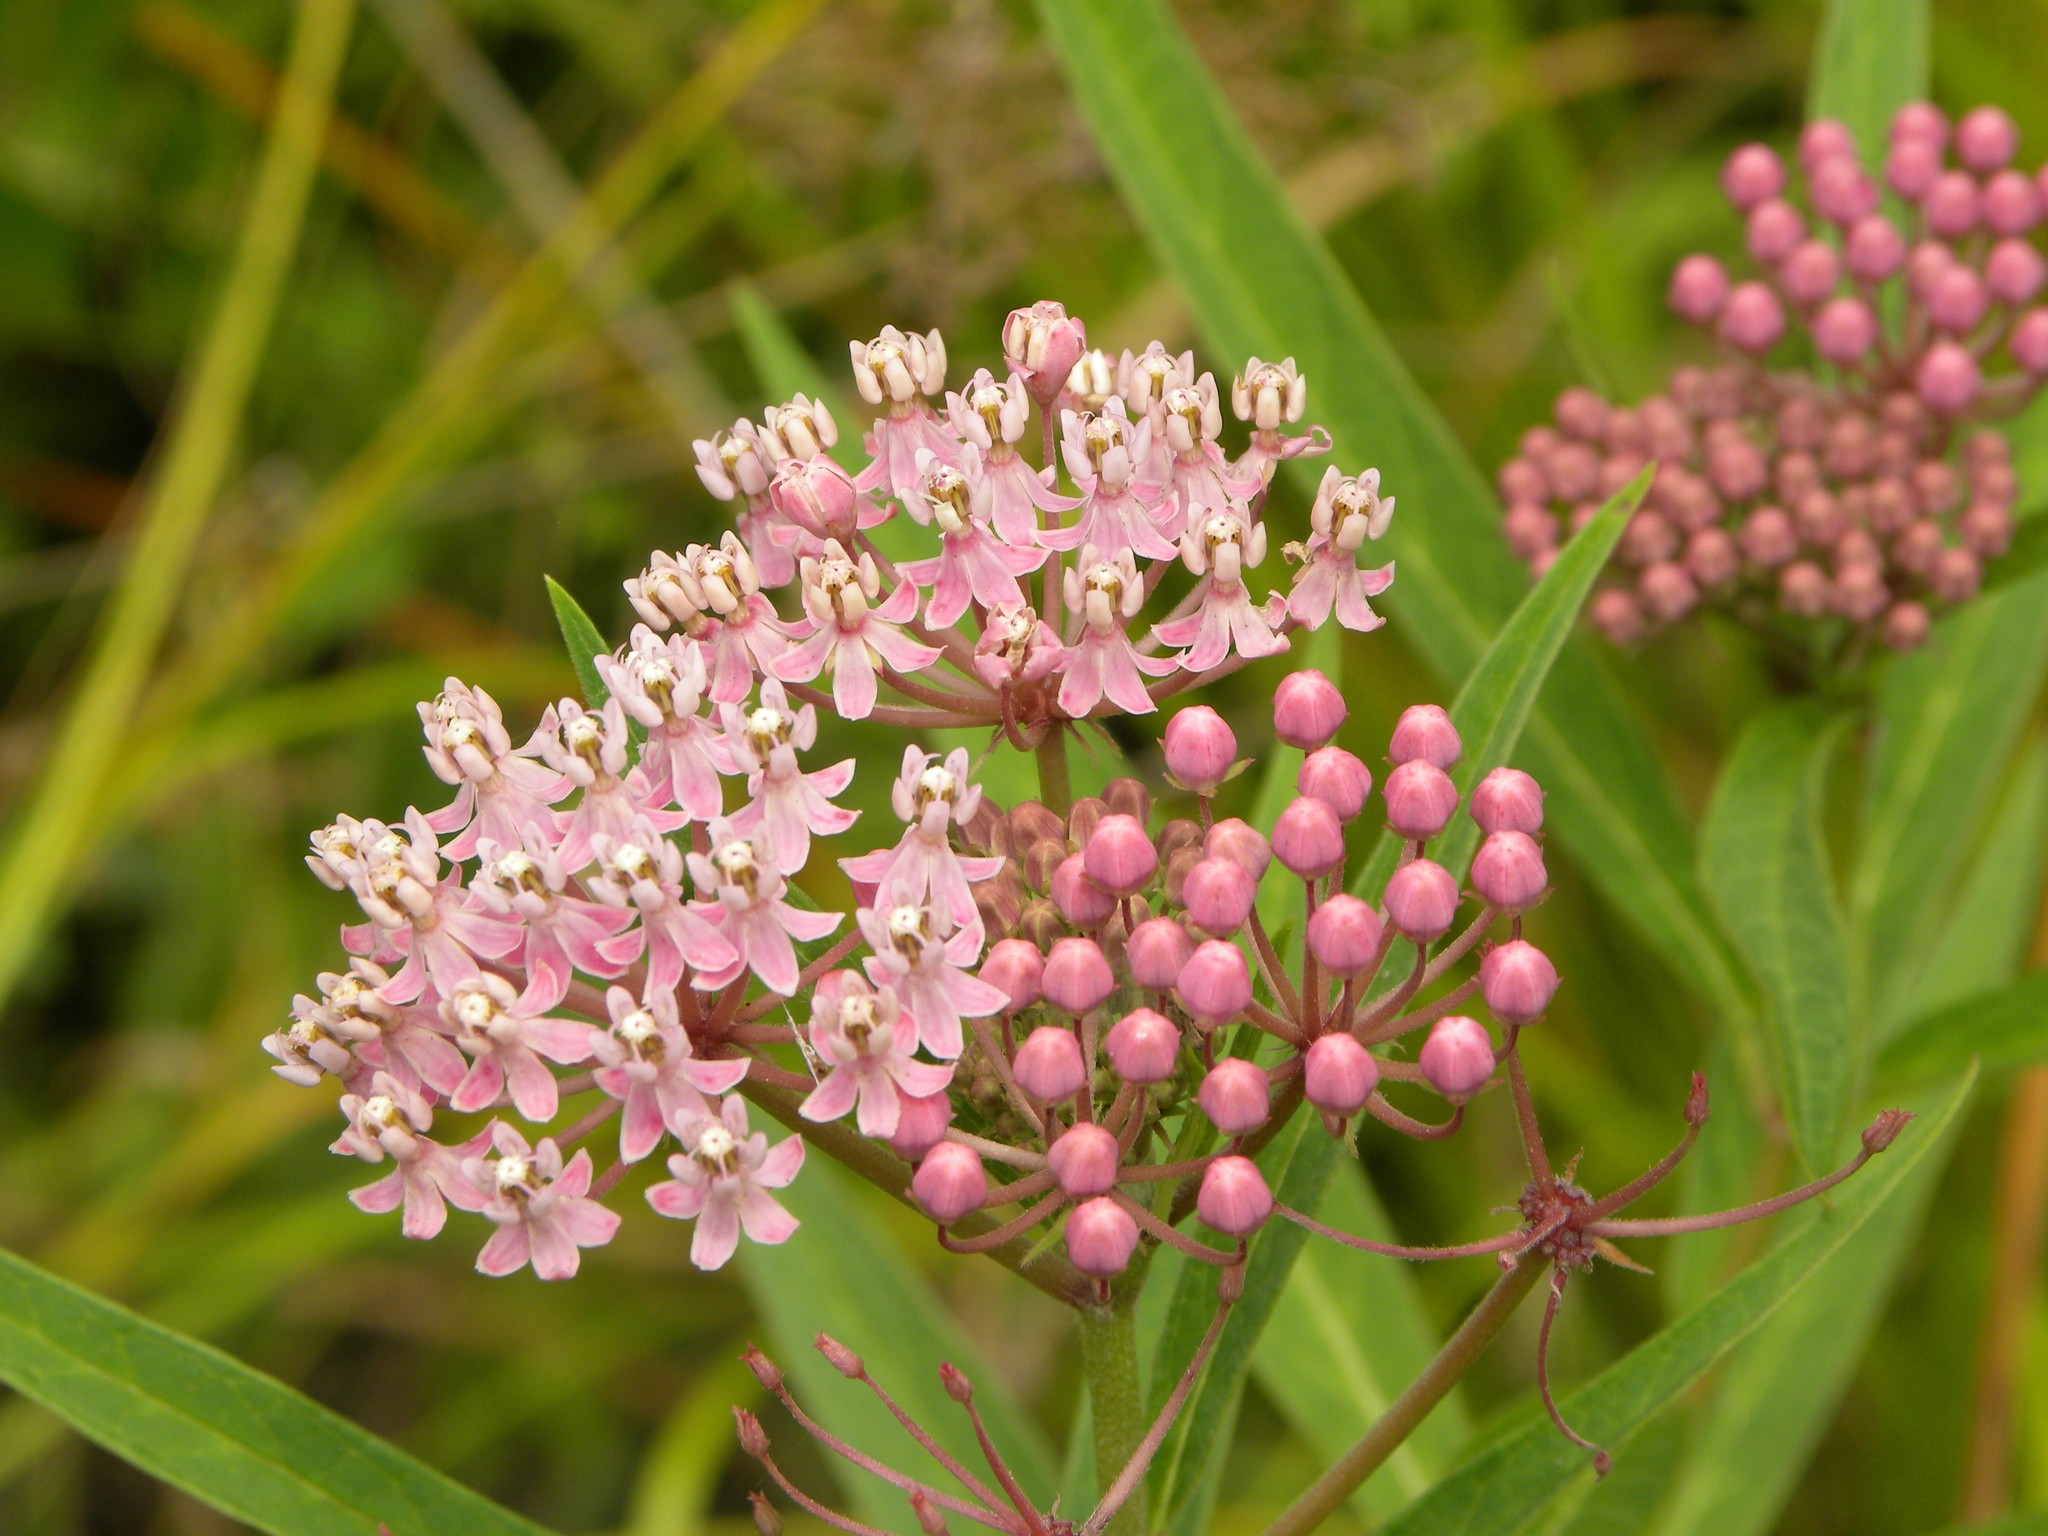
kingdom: Plantae
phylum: Tracheophyta
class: Magnoliopsida
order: Gentianales
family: Apocynaceae
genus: Asclepias
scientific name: Asclepias incarnata
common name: Swamp milkweed
